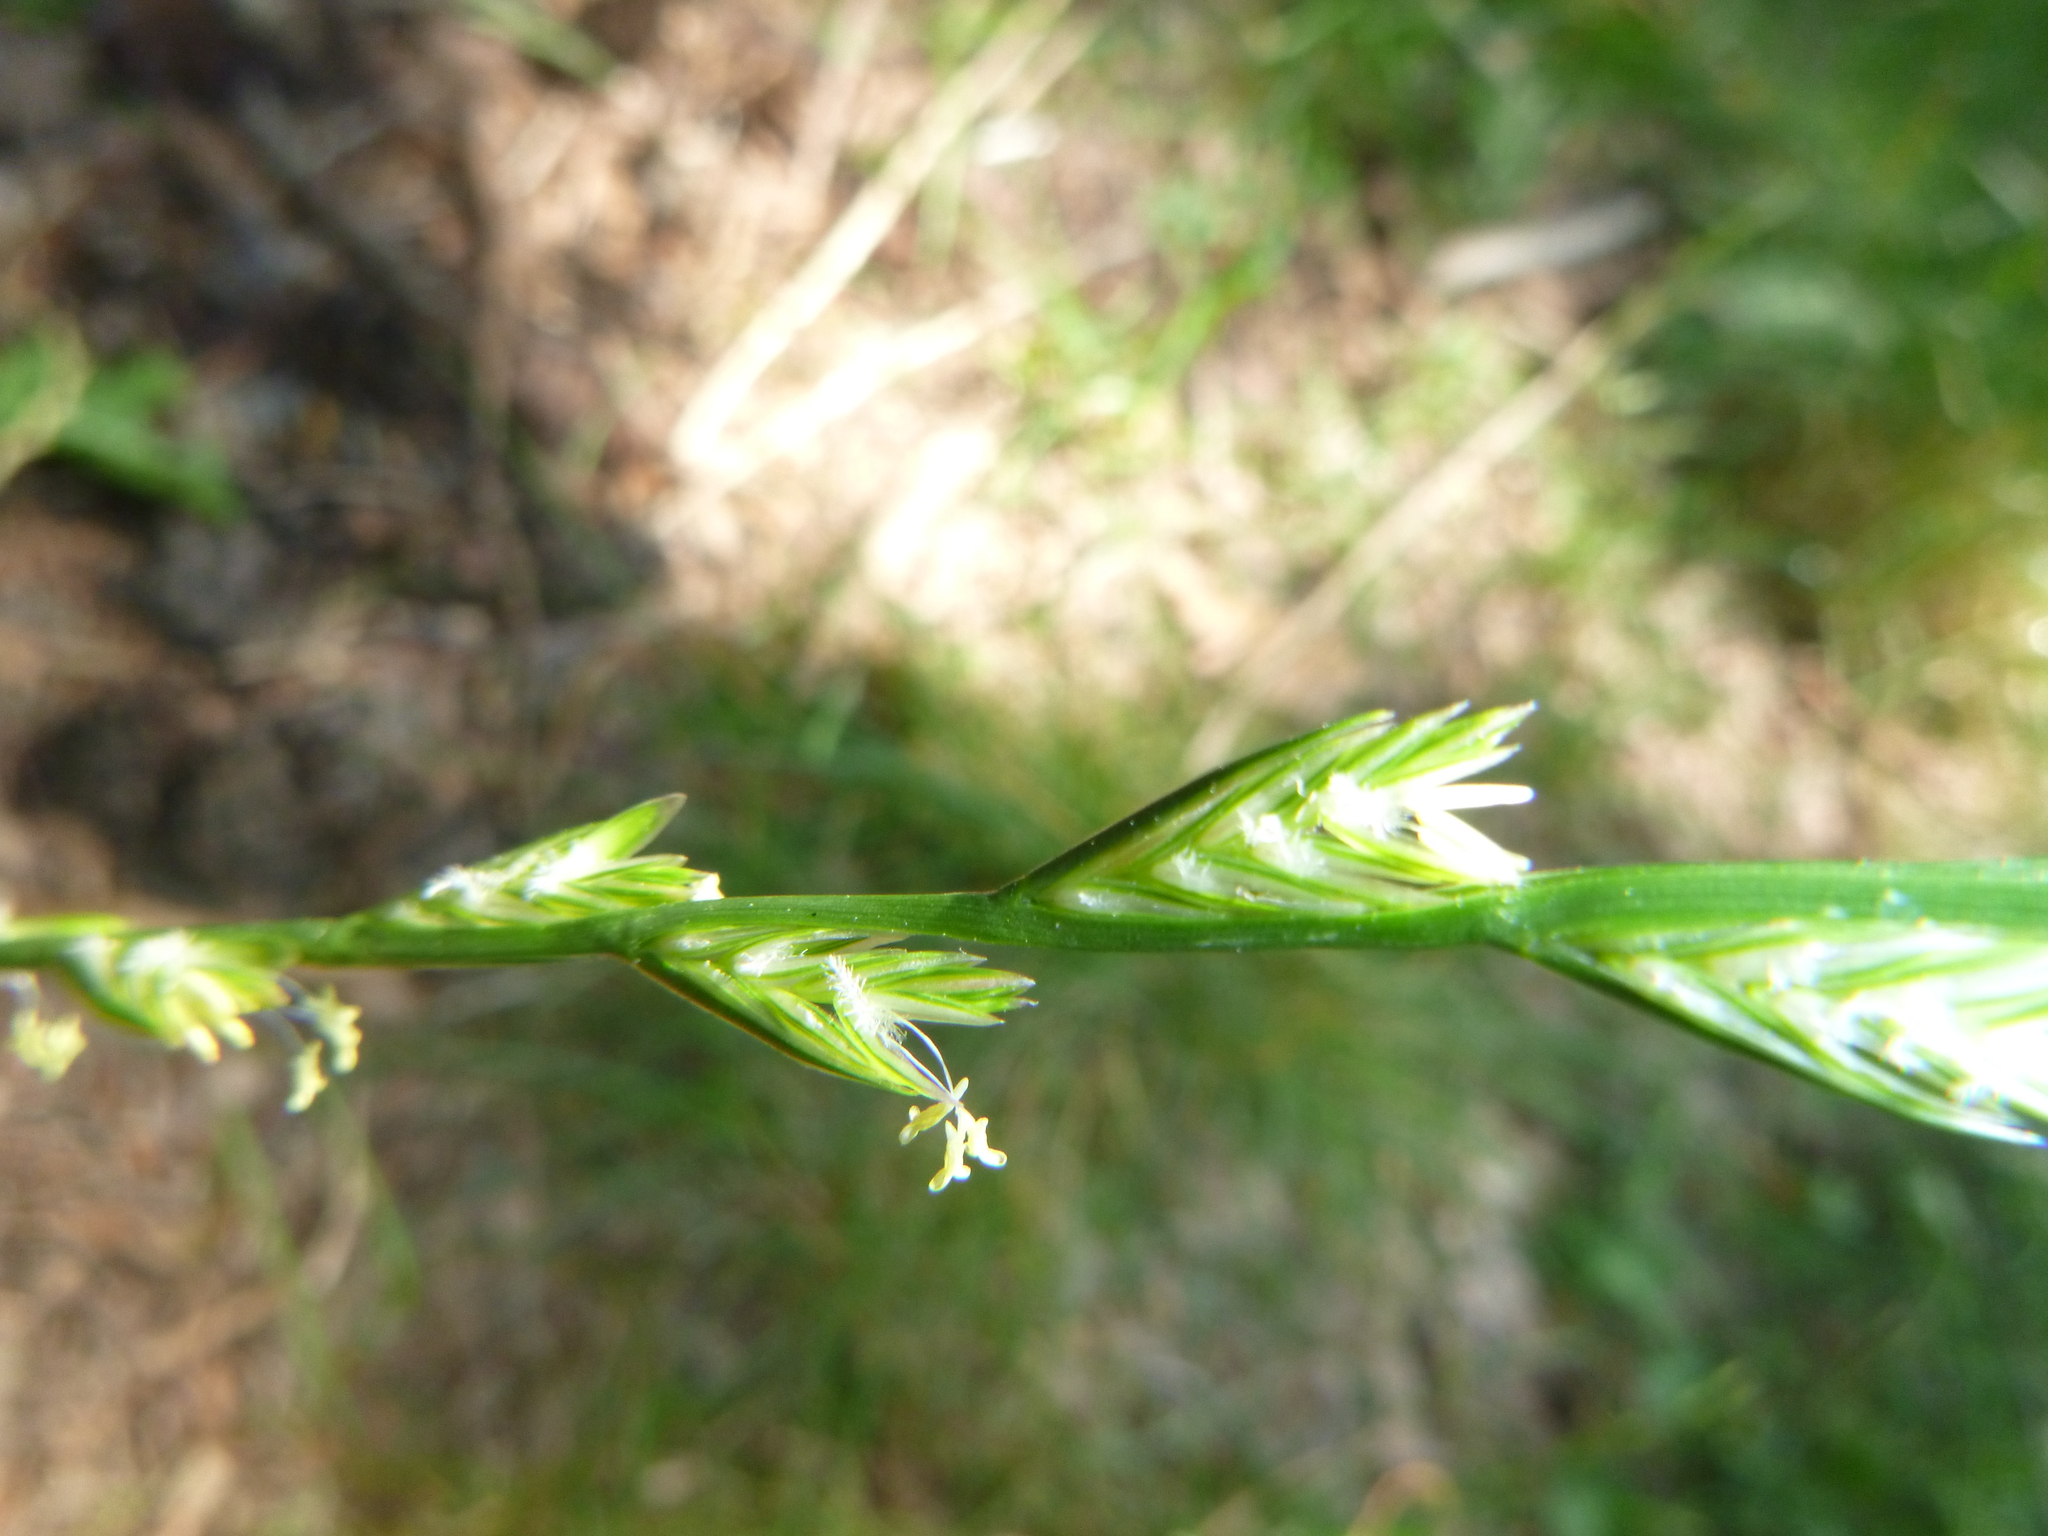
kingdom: Plantae
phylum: Tracheophyta
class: Liliopsida
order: Poales
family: Poaceae
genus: Lolium
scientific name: Lolium perenne
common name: Perennial ryegrass
